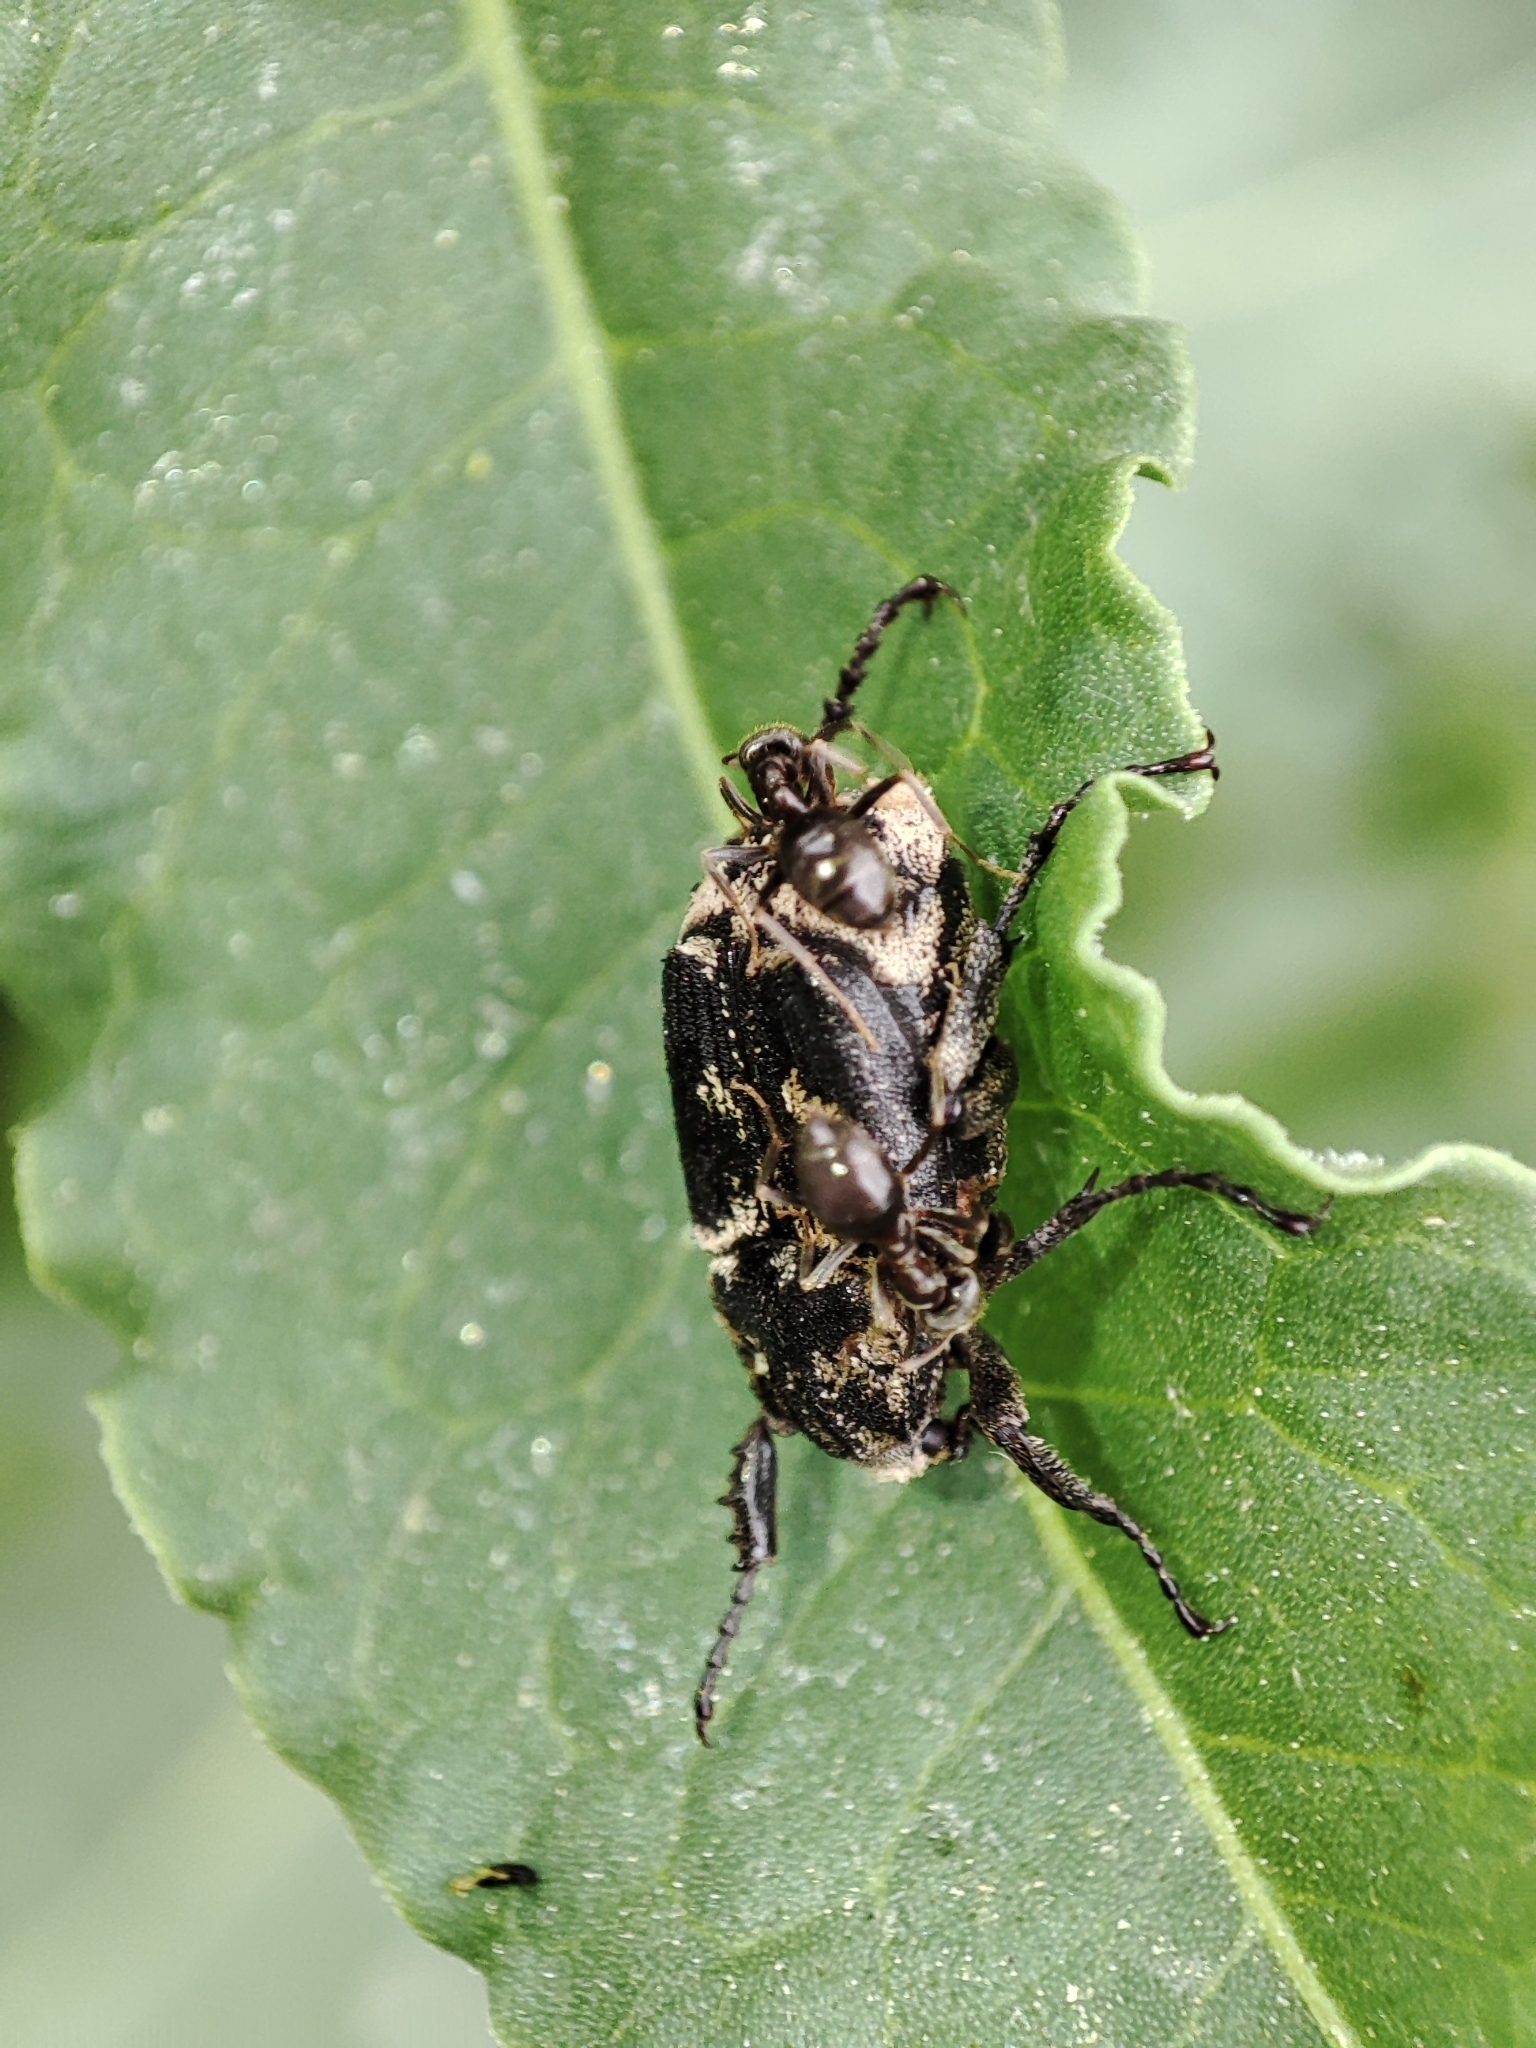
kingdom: Animalia
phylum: Arthropoda
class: Insecta
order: Coleoptera
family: Scarabaeidae
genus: Valgus
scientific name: Valgus hemipterus
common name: Bug flower chafer
